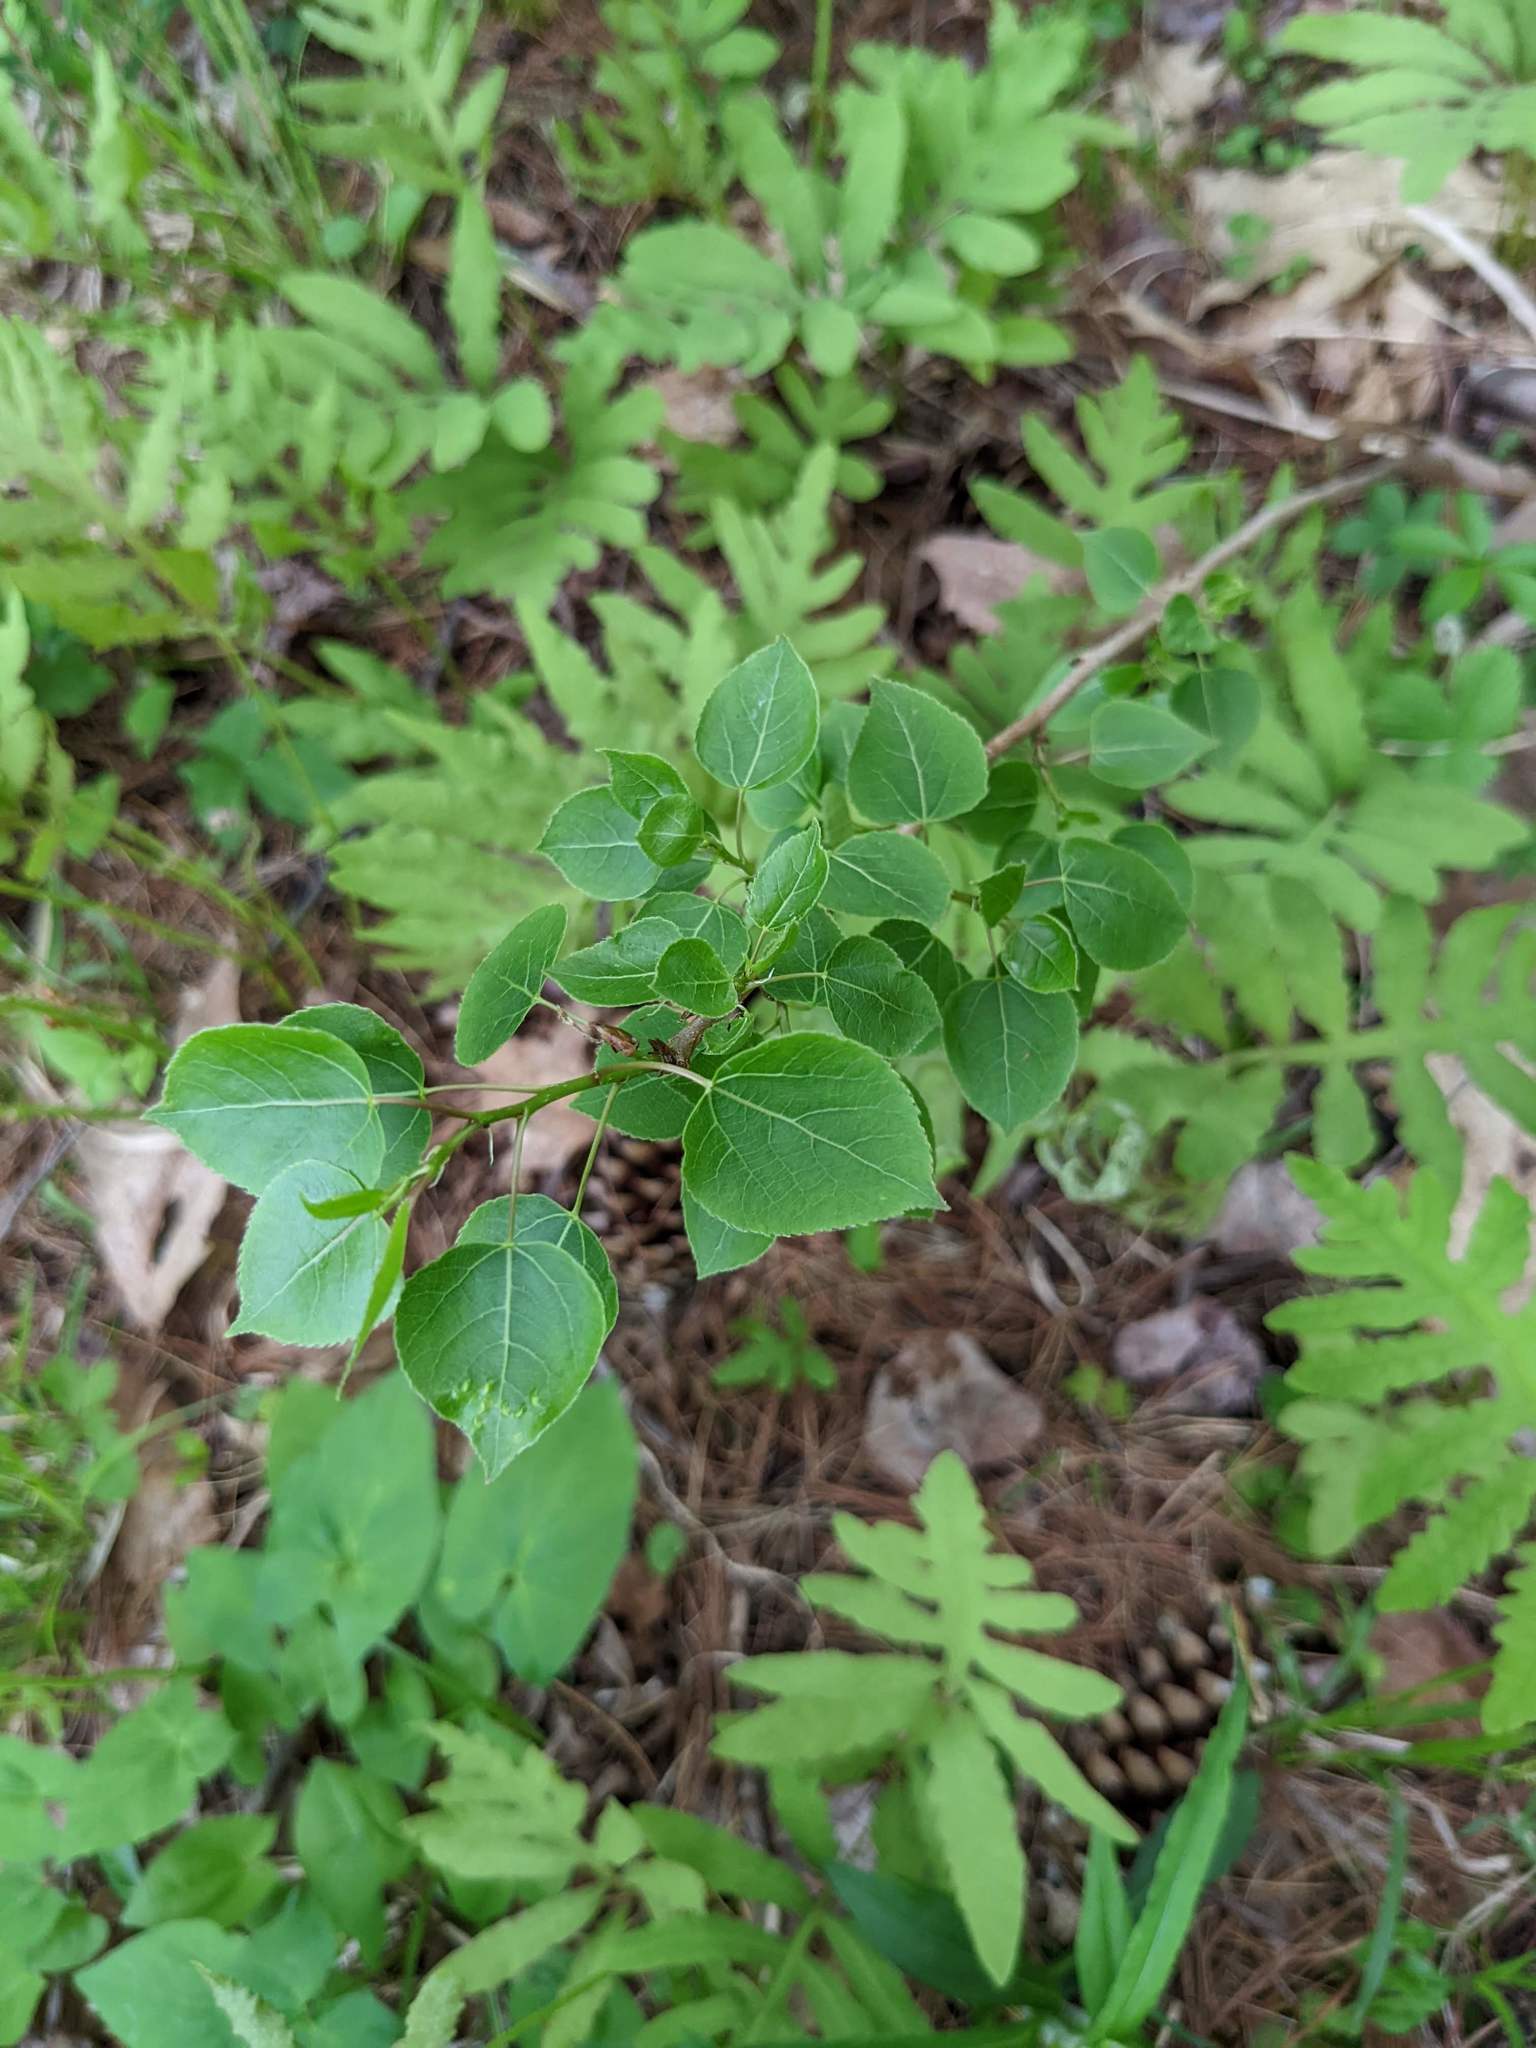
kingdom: Plantae
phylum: Tracheophyta
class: Magnoliopsida
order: Malpighiales
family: Salicaceae
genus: Populus
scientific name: Populus tremuloides
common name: Quaking aspen
